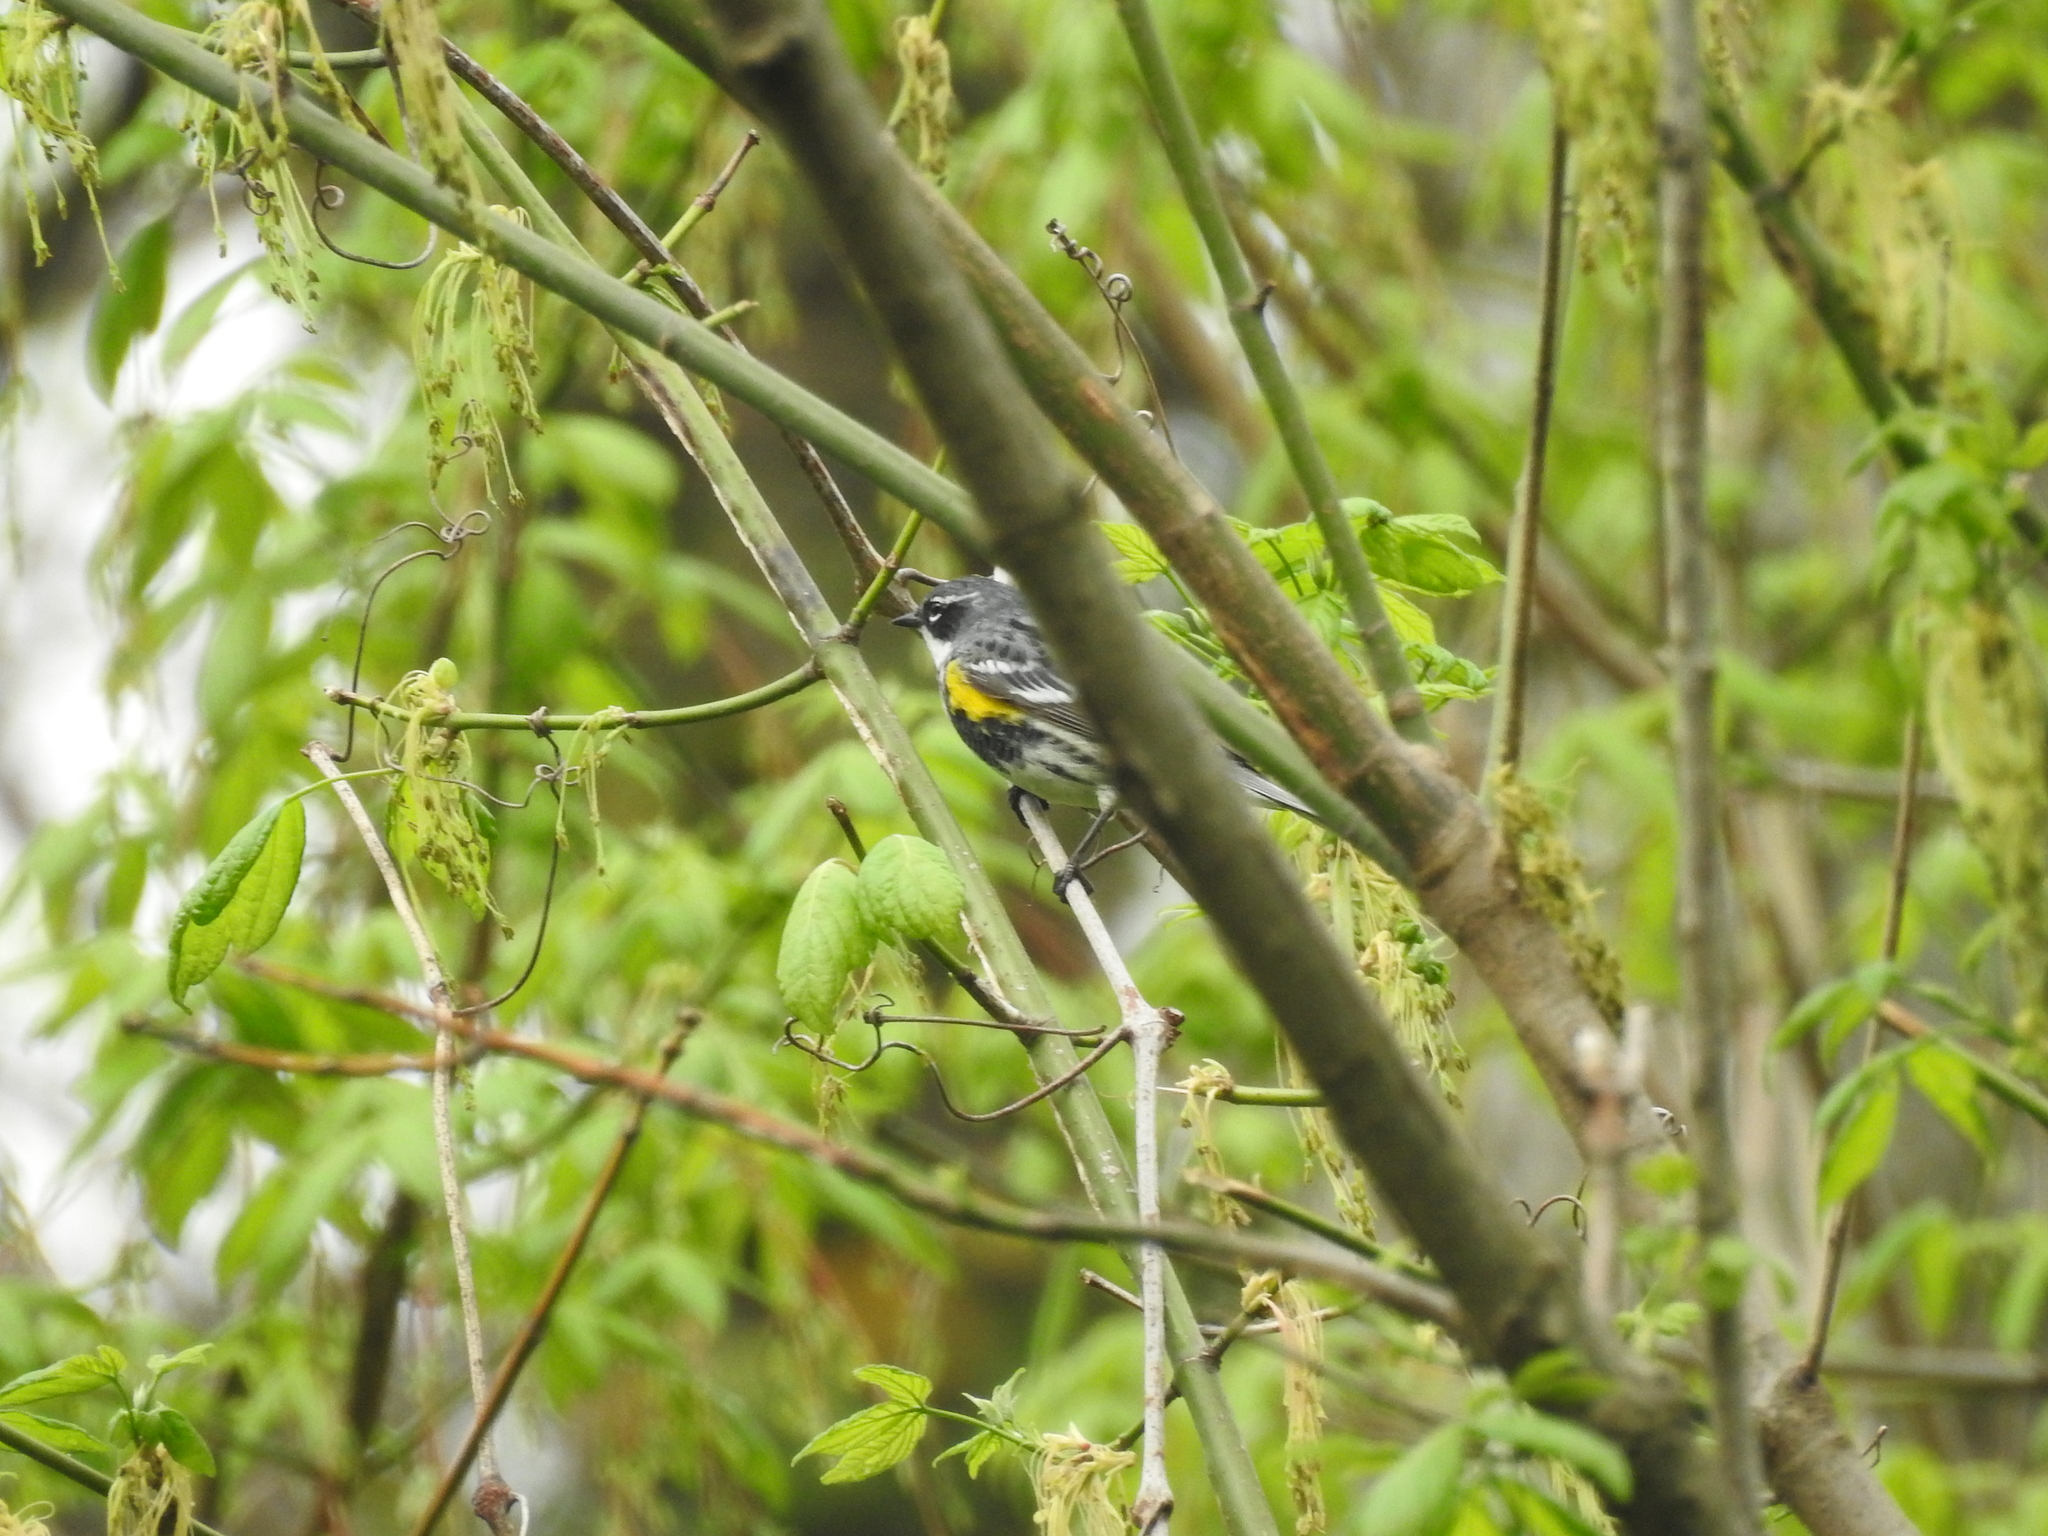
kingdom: Animalia
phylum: Chordata
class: Aves
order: Passeriformes
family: Parulidae
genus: Setophaga
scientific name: Setophaga coronata
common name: Myrtle warbler
